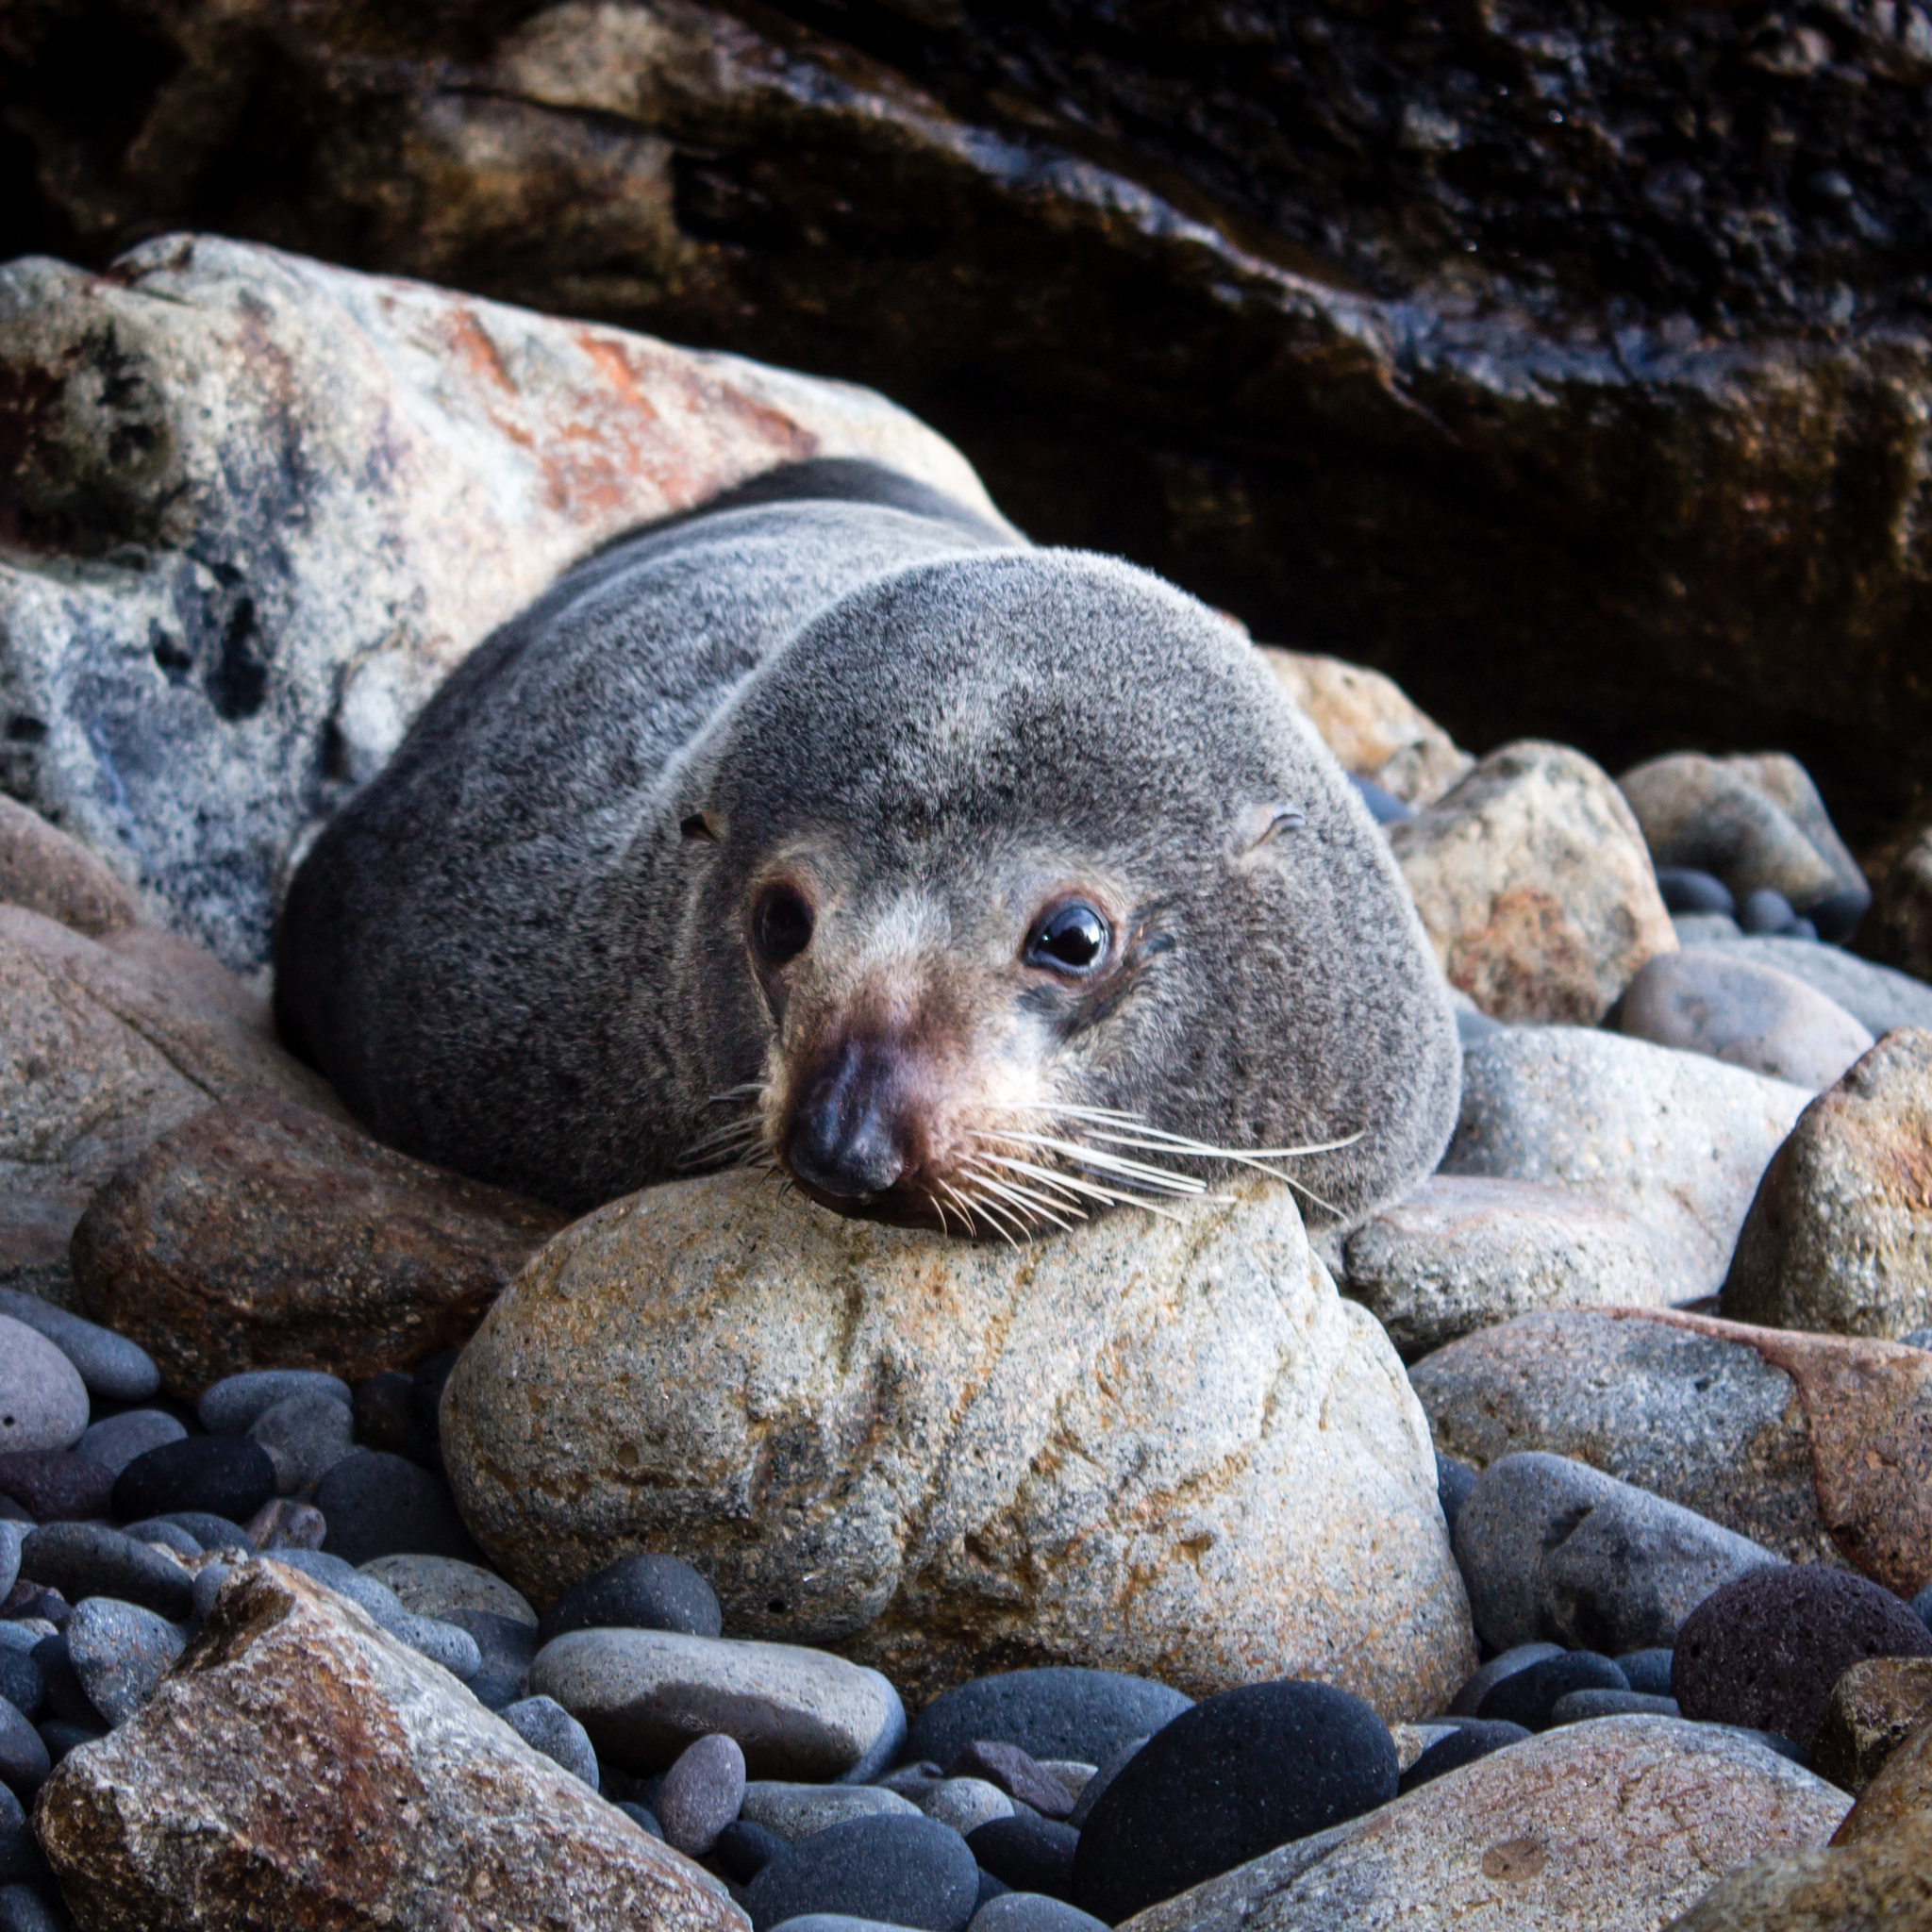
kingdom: Animalia
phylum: Chordata
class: Mammalia
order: Carnivora
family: Otariidae
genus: Arctocephalus
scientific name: Arctocephalus forsteri
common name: New zealand fur seal
